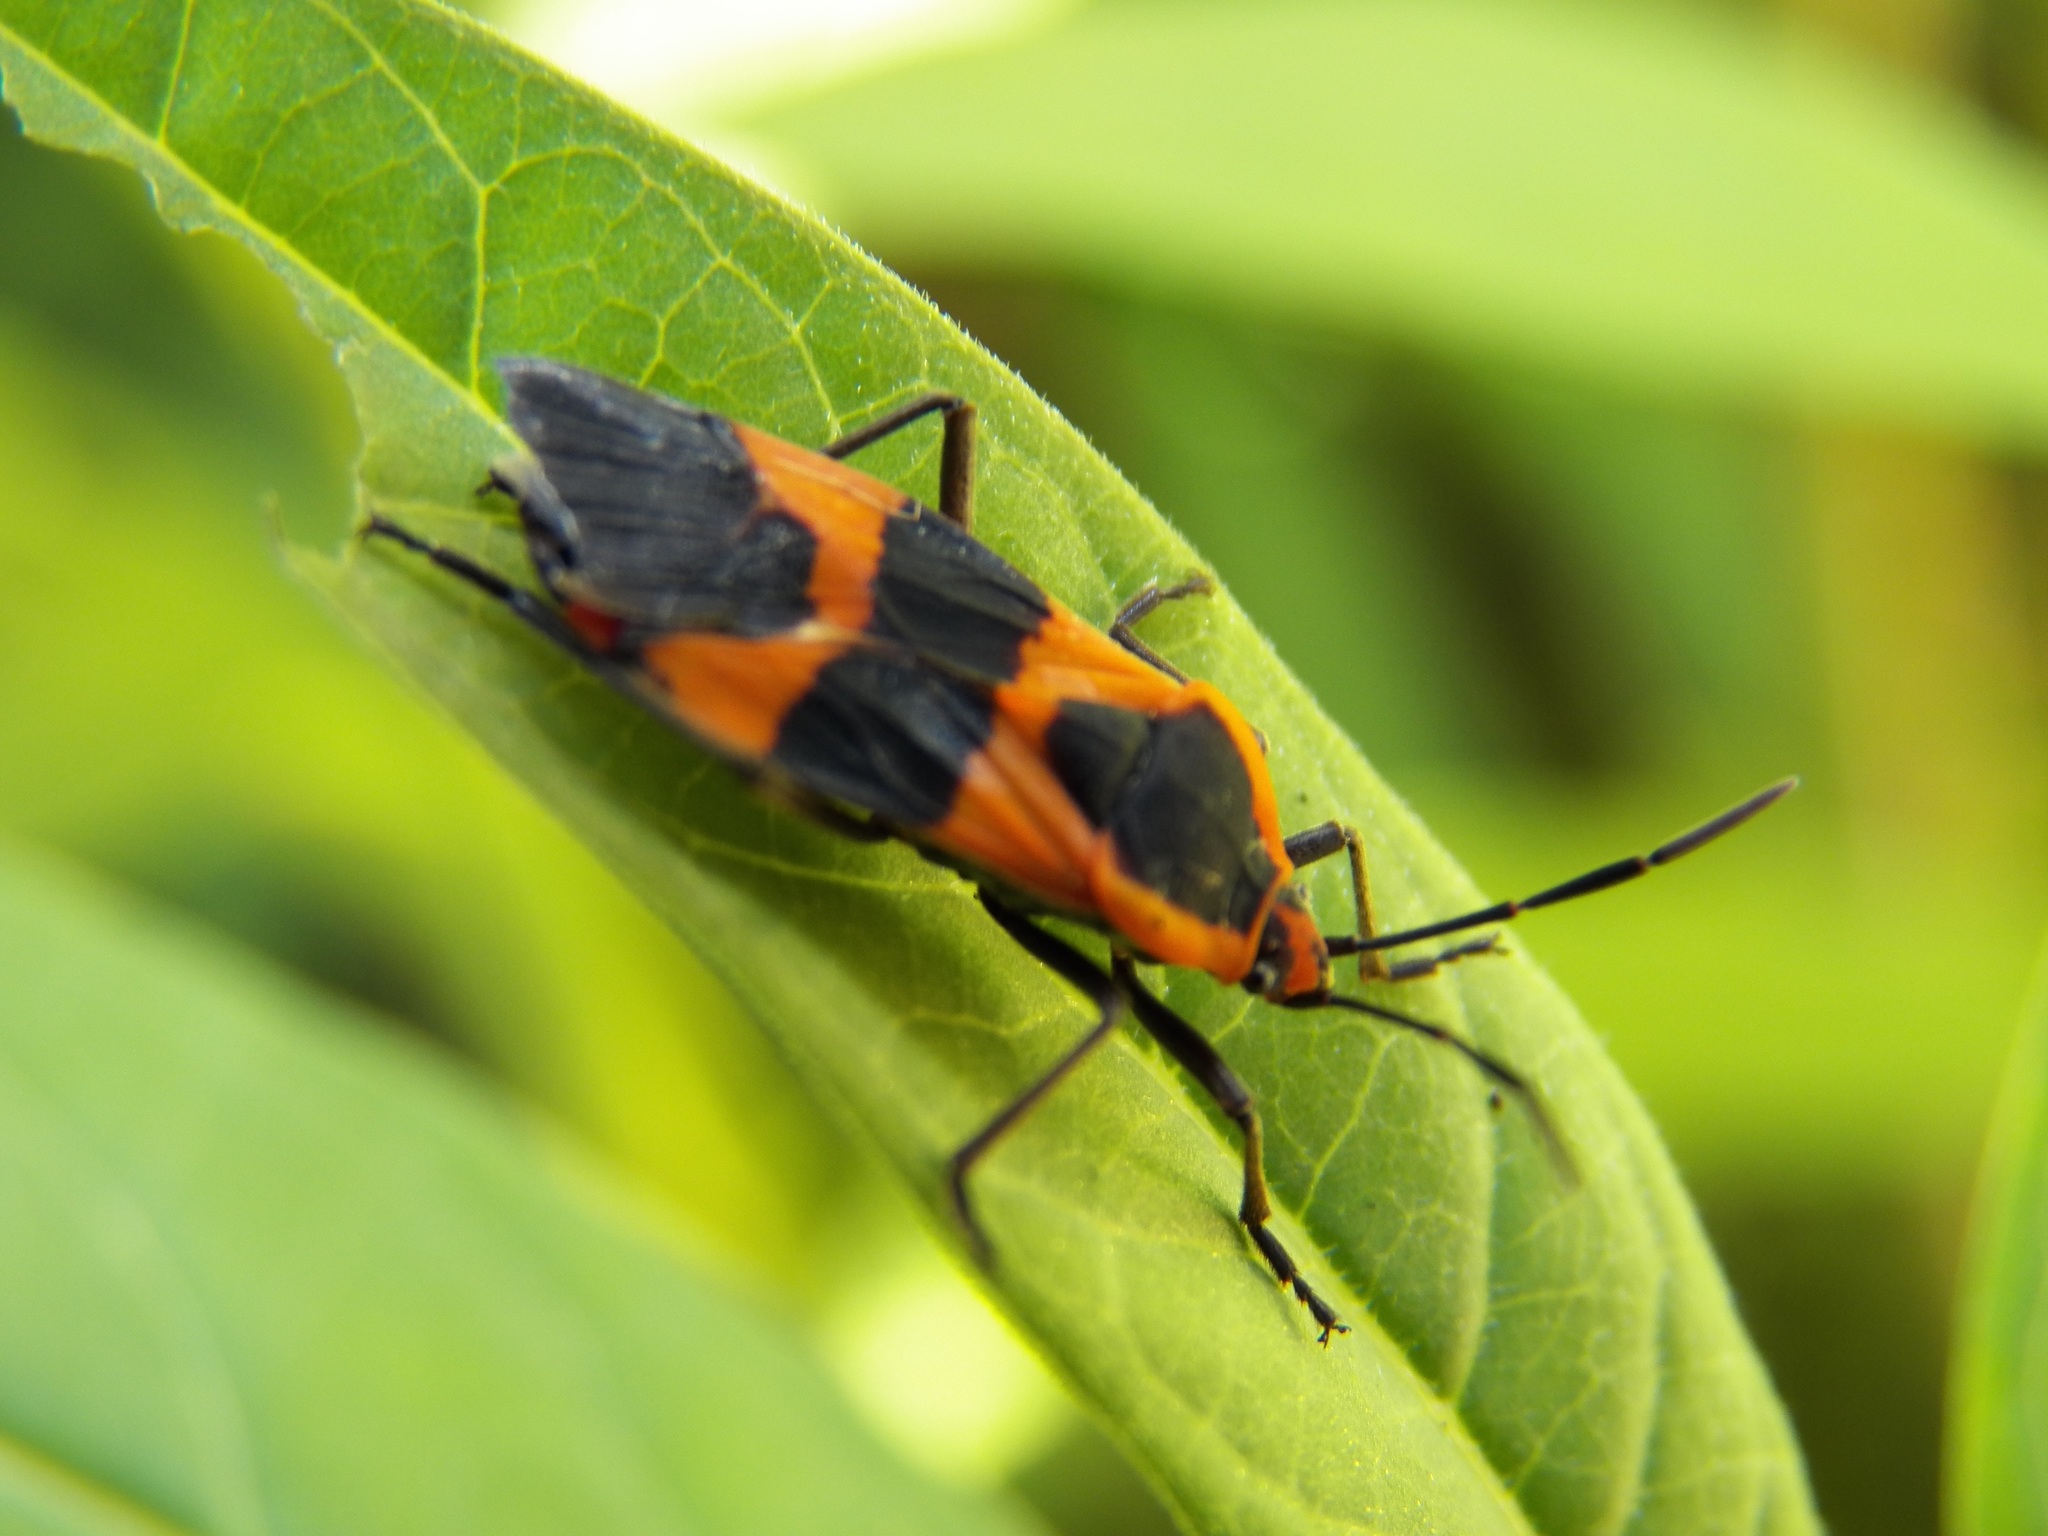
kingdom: Animalia
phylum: Arthropoda
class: Insecta
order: Hemiptera
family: Lygaeidae
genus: Oncopeltus
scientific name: Oncopeltus fasciatus
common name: Large milkweed bug
